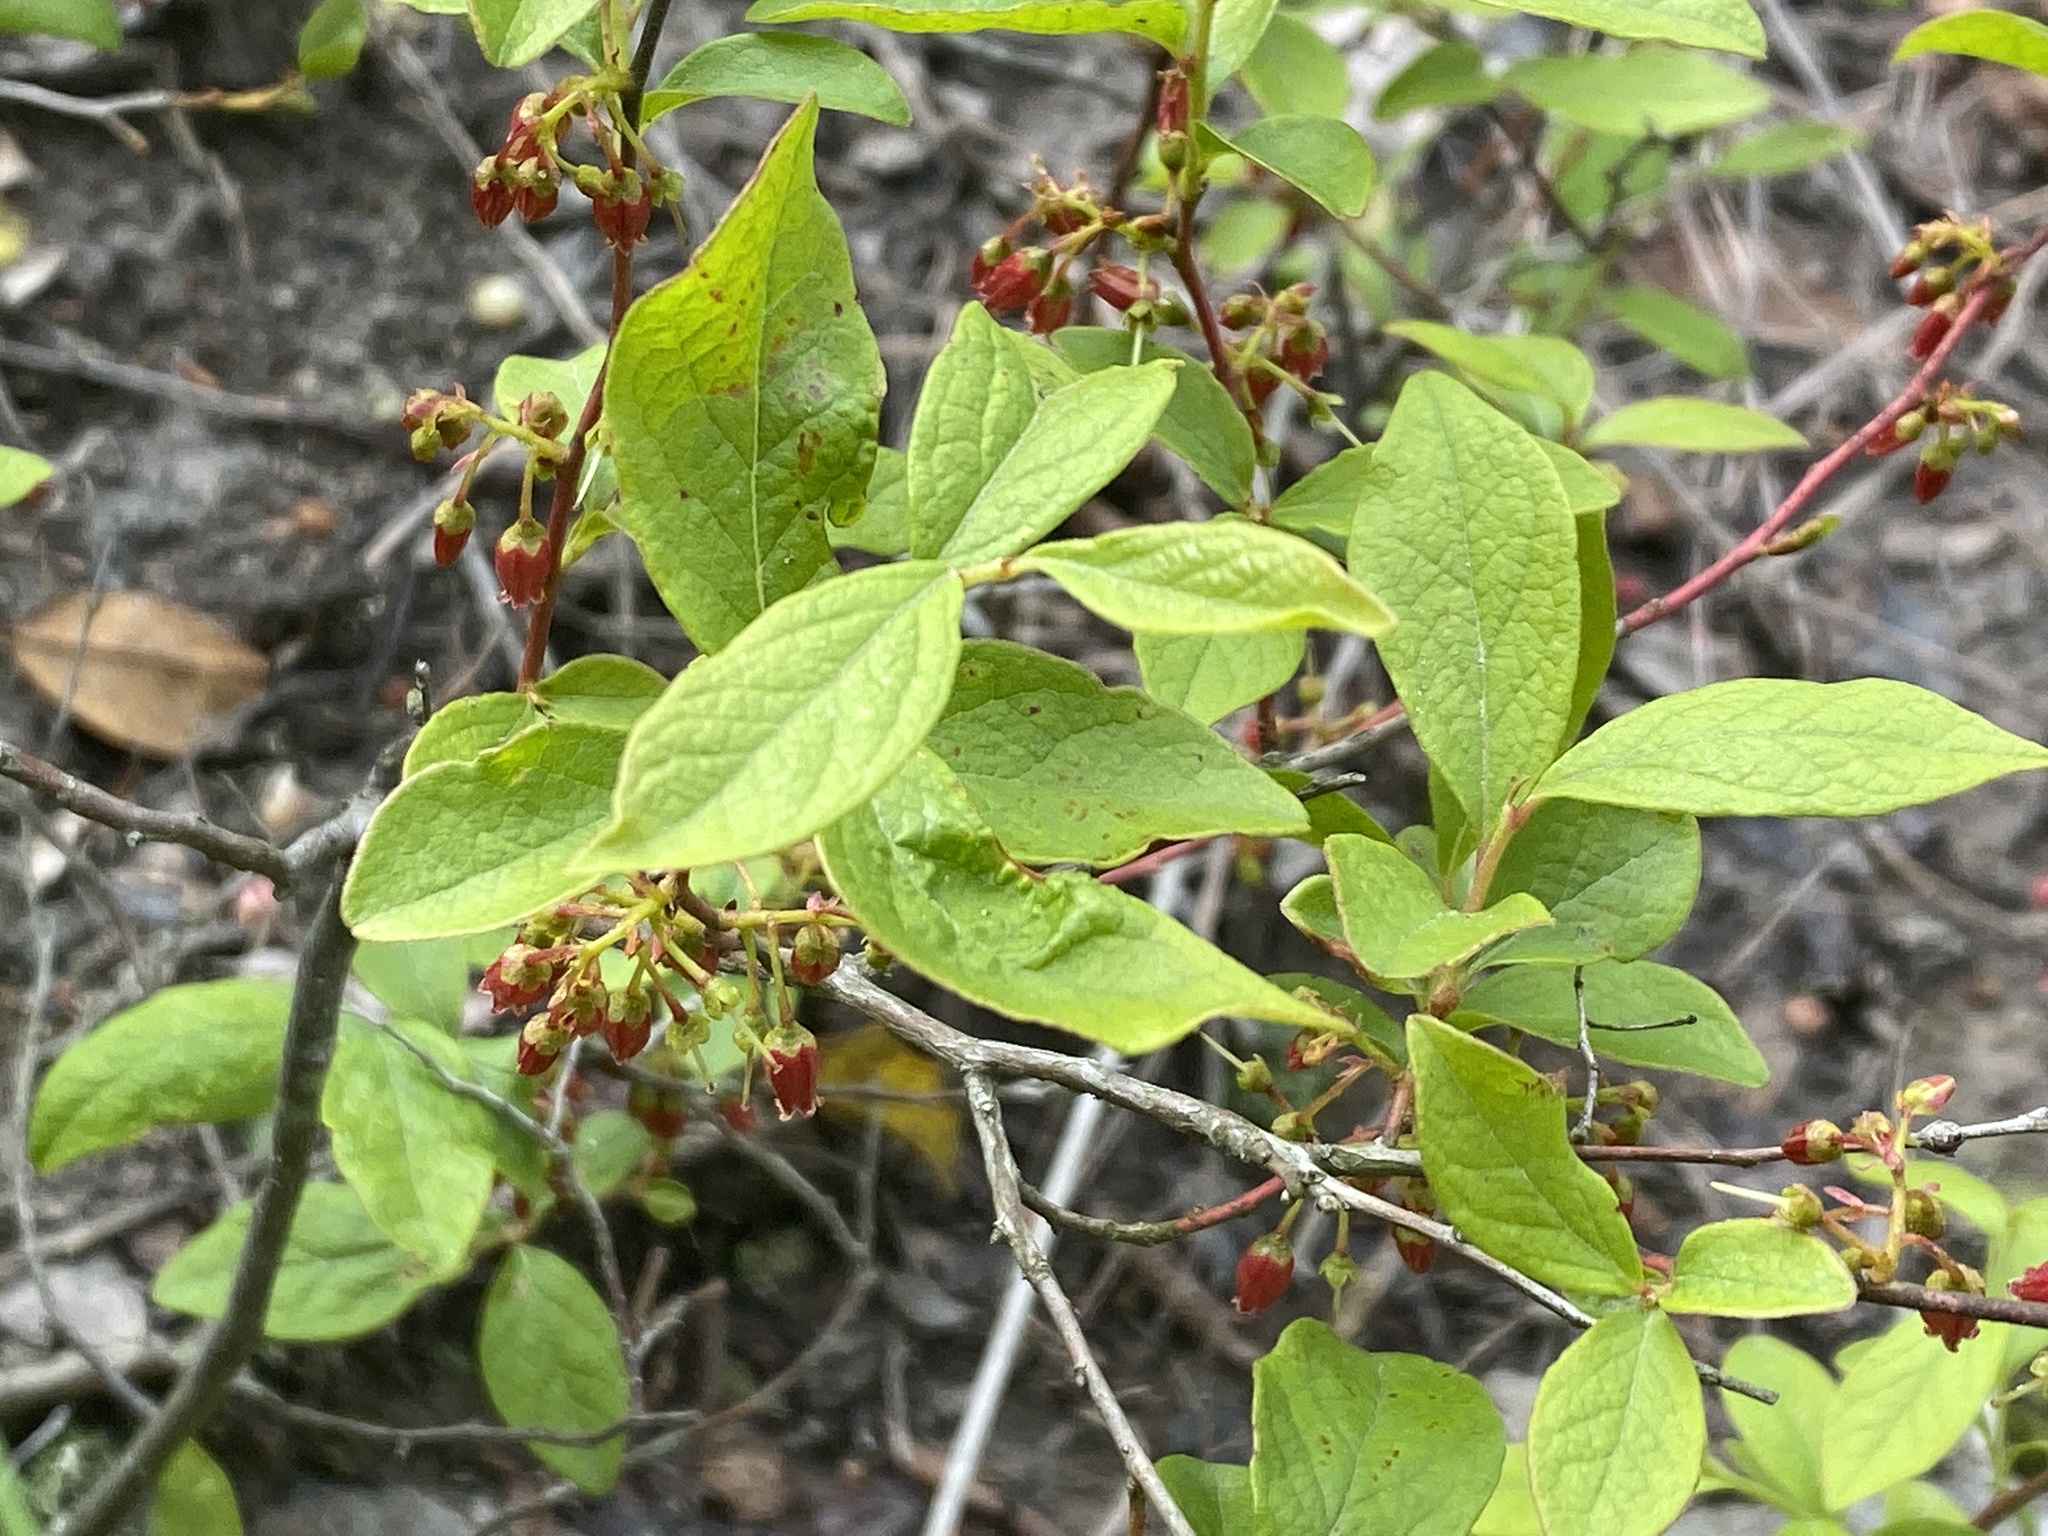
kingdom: Plantae
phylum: Tracheophyta
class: Magnoliopsida
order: Ericales
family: Ericaceae
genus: Gaylussacia
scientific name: Gaylussacia baccata
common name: Black huckleberry
